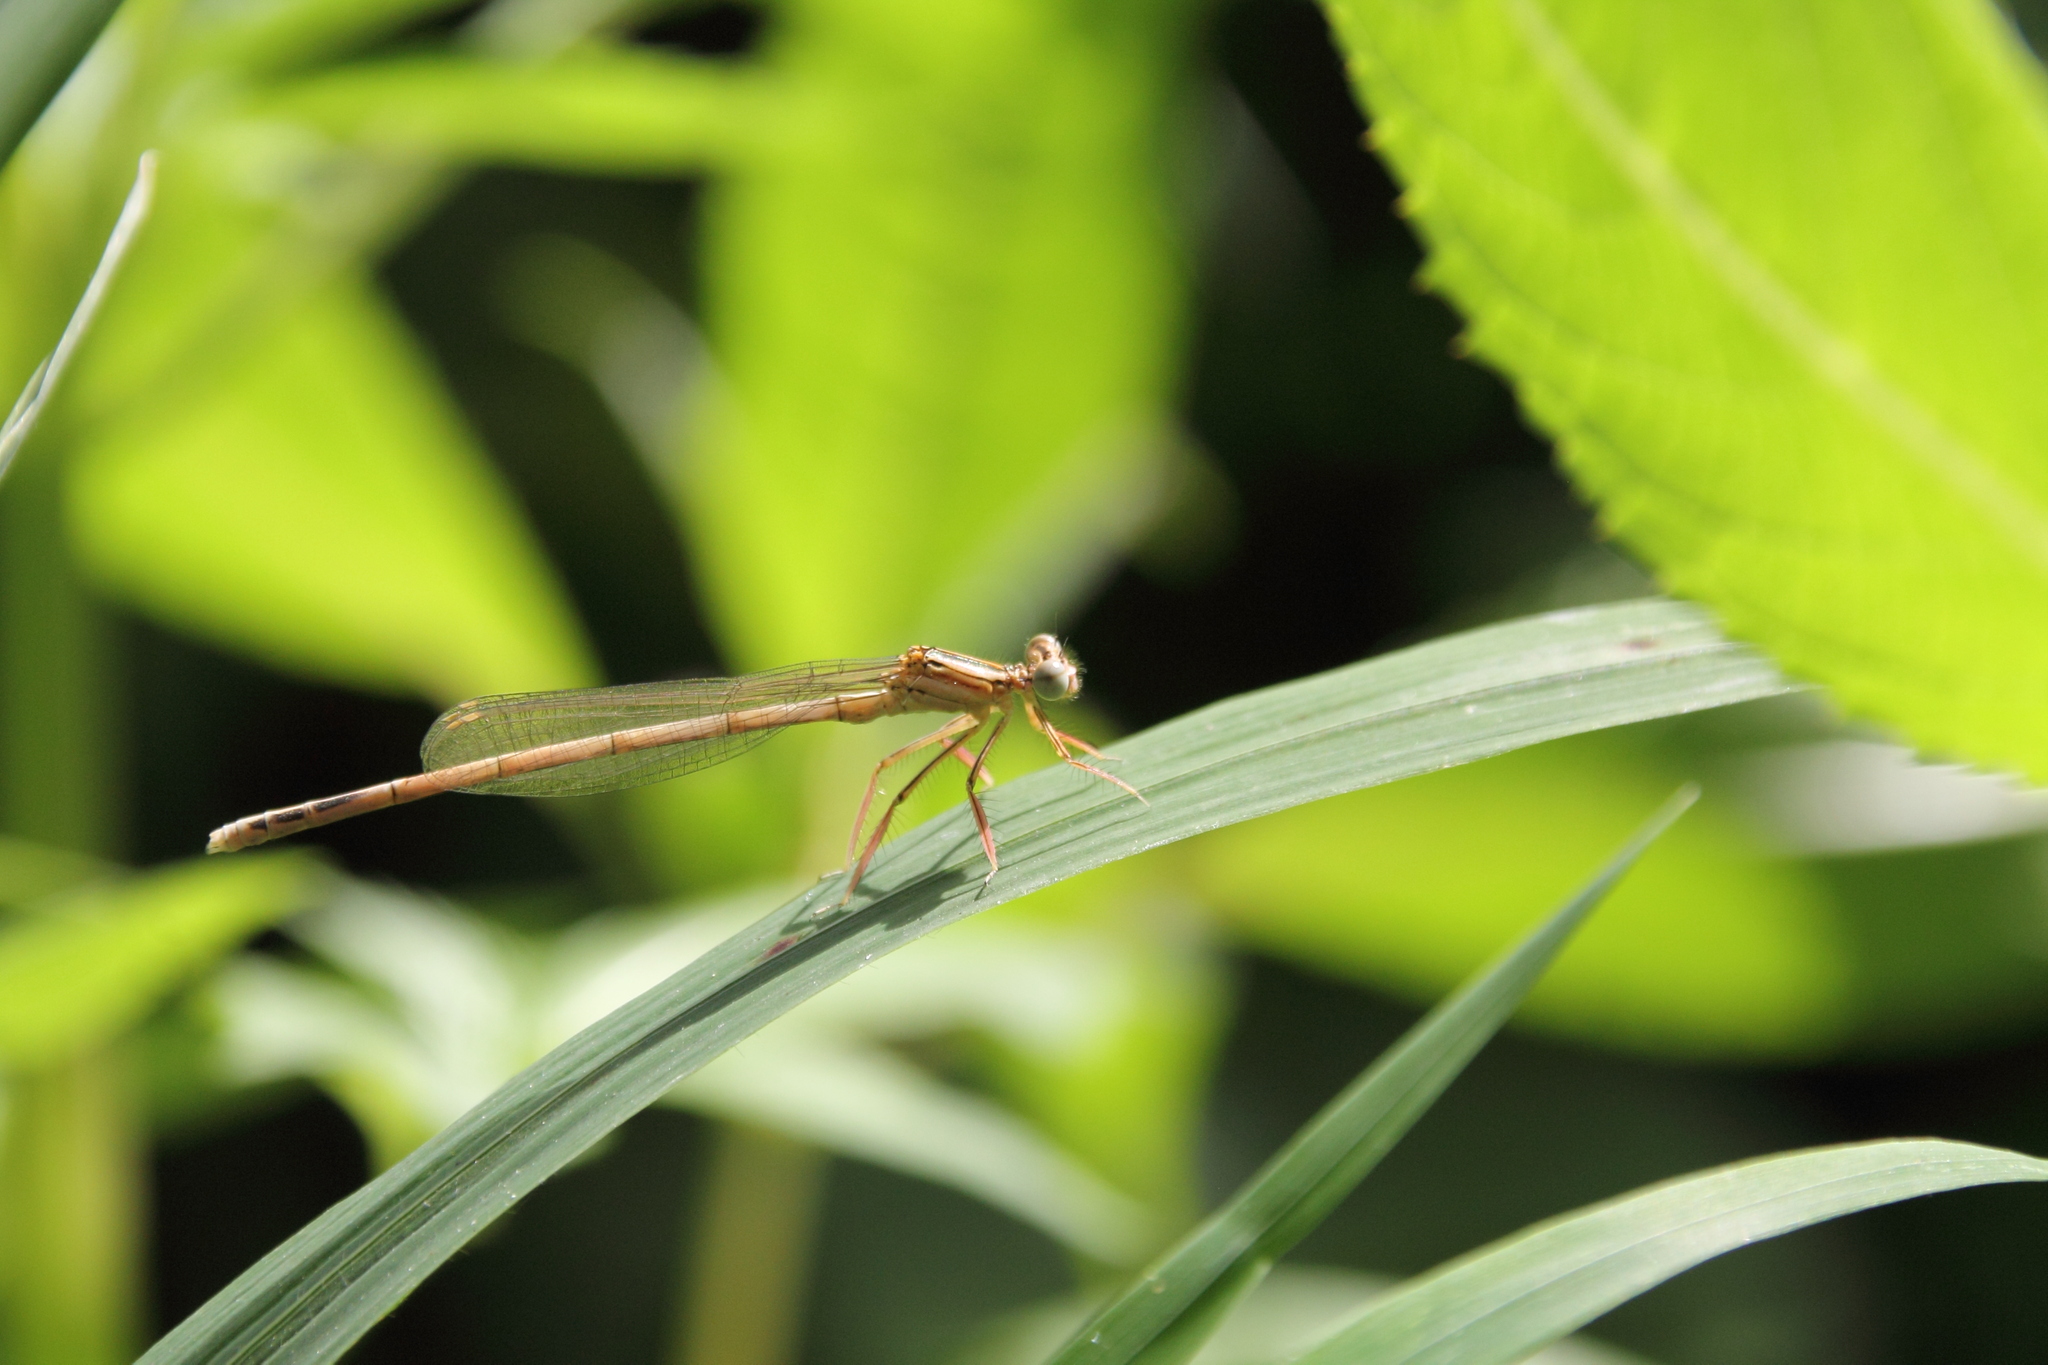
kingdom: Animalia
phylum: Arthropoda
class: Insecta
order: Odonata
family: Platycnemididae
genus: Platycnemis
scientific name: Platycnemis pennipes
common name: White-legged damselfly
